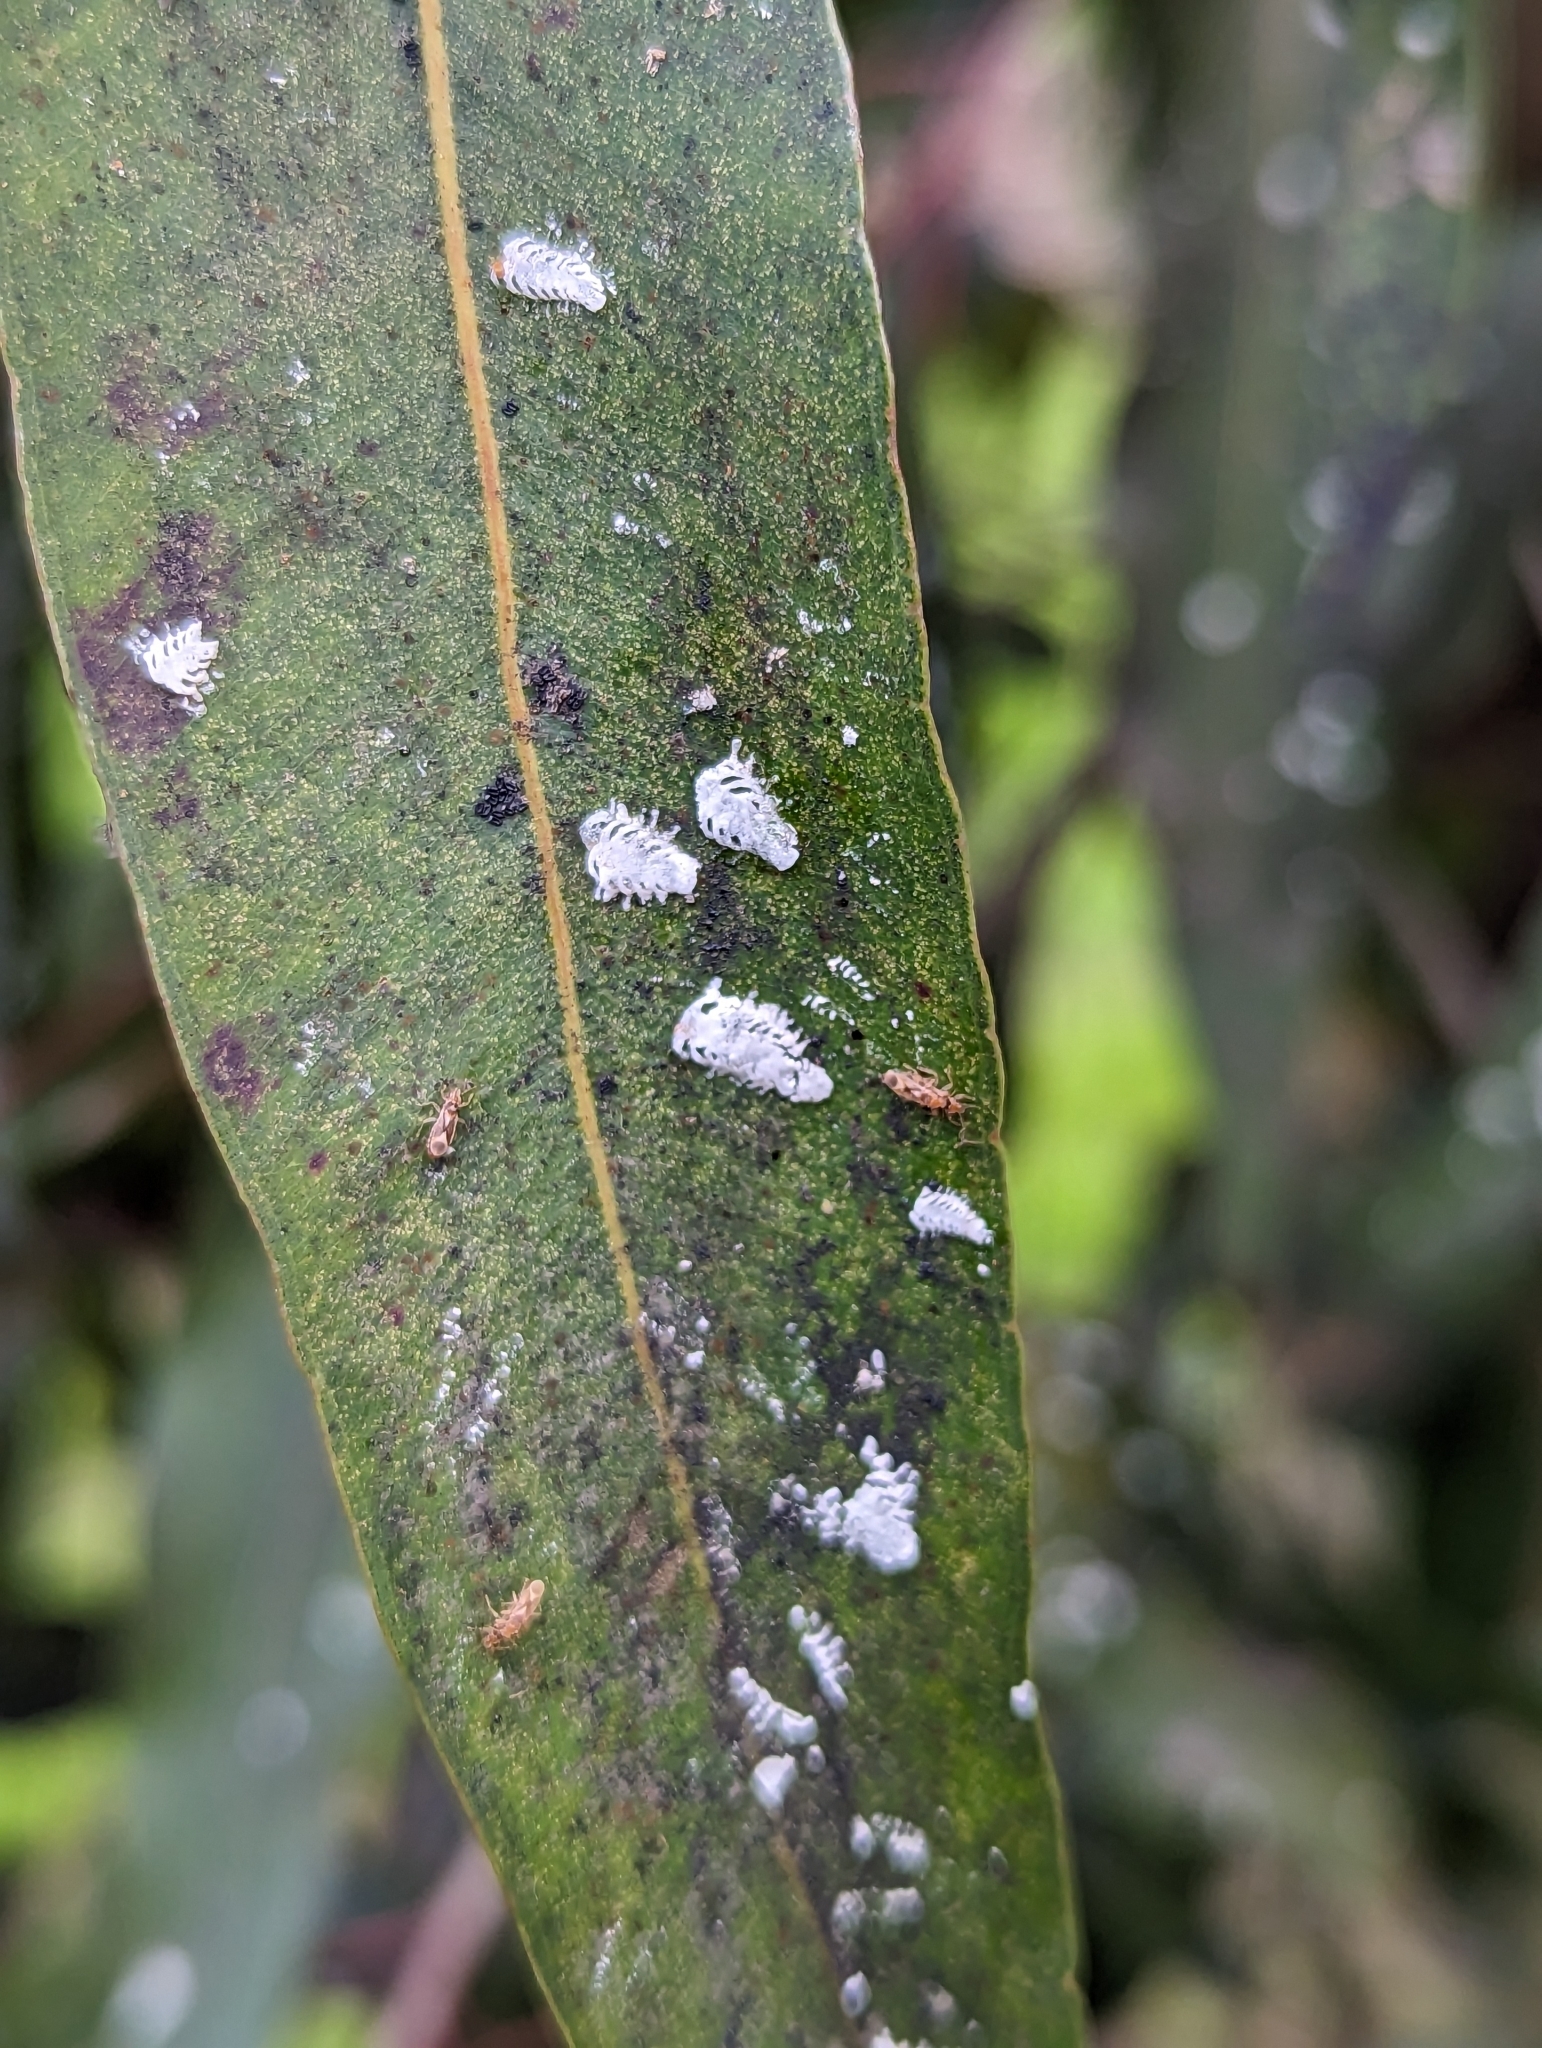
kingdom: Animalia
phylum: Arthropoda
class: Insecta
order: Hemiptera
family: Aphalaridae
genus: Eucalyptolyma
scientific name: Eucalyptolyma maideni
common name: Spotted gum lerp psyllid
